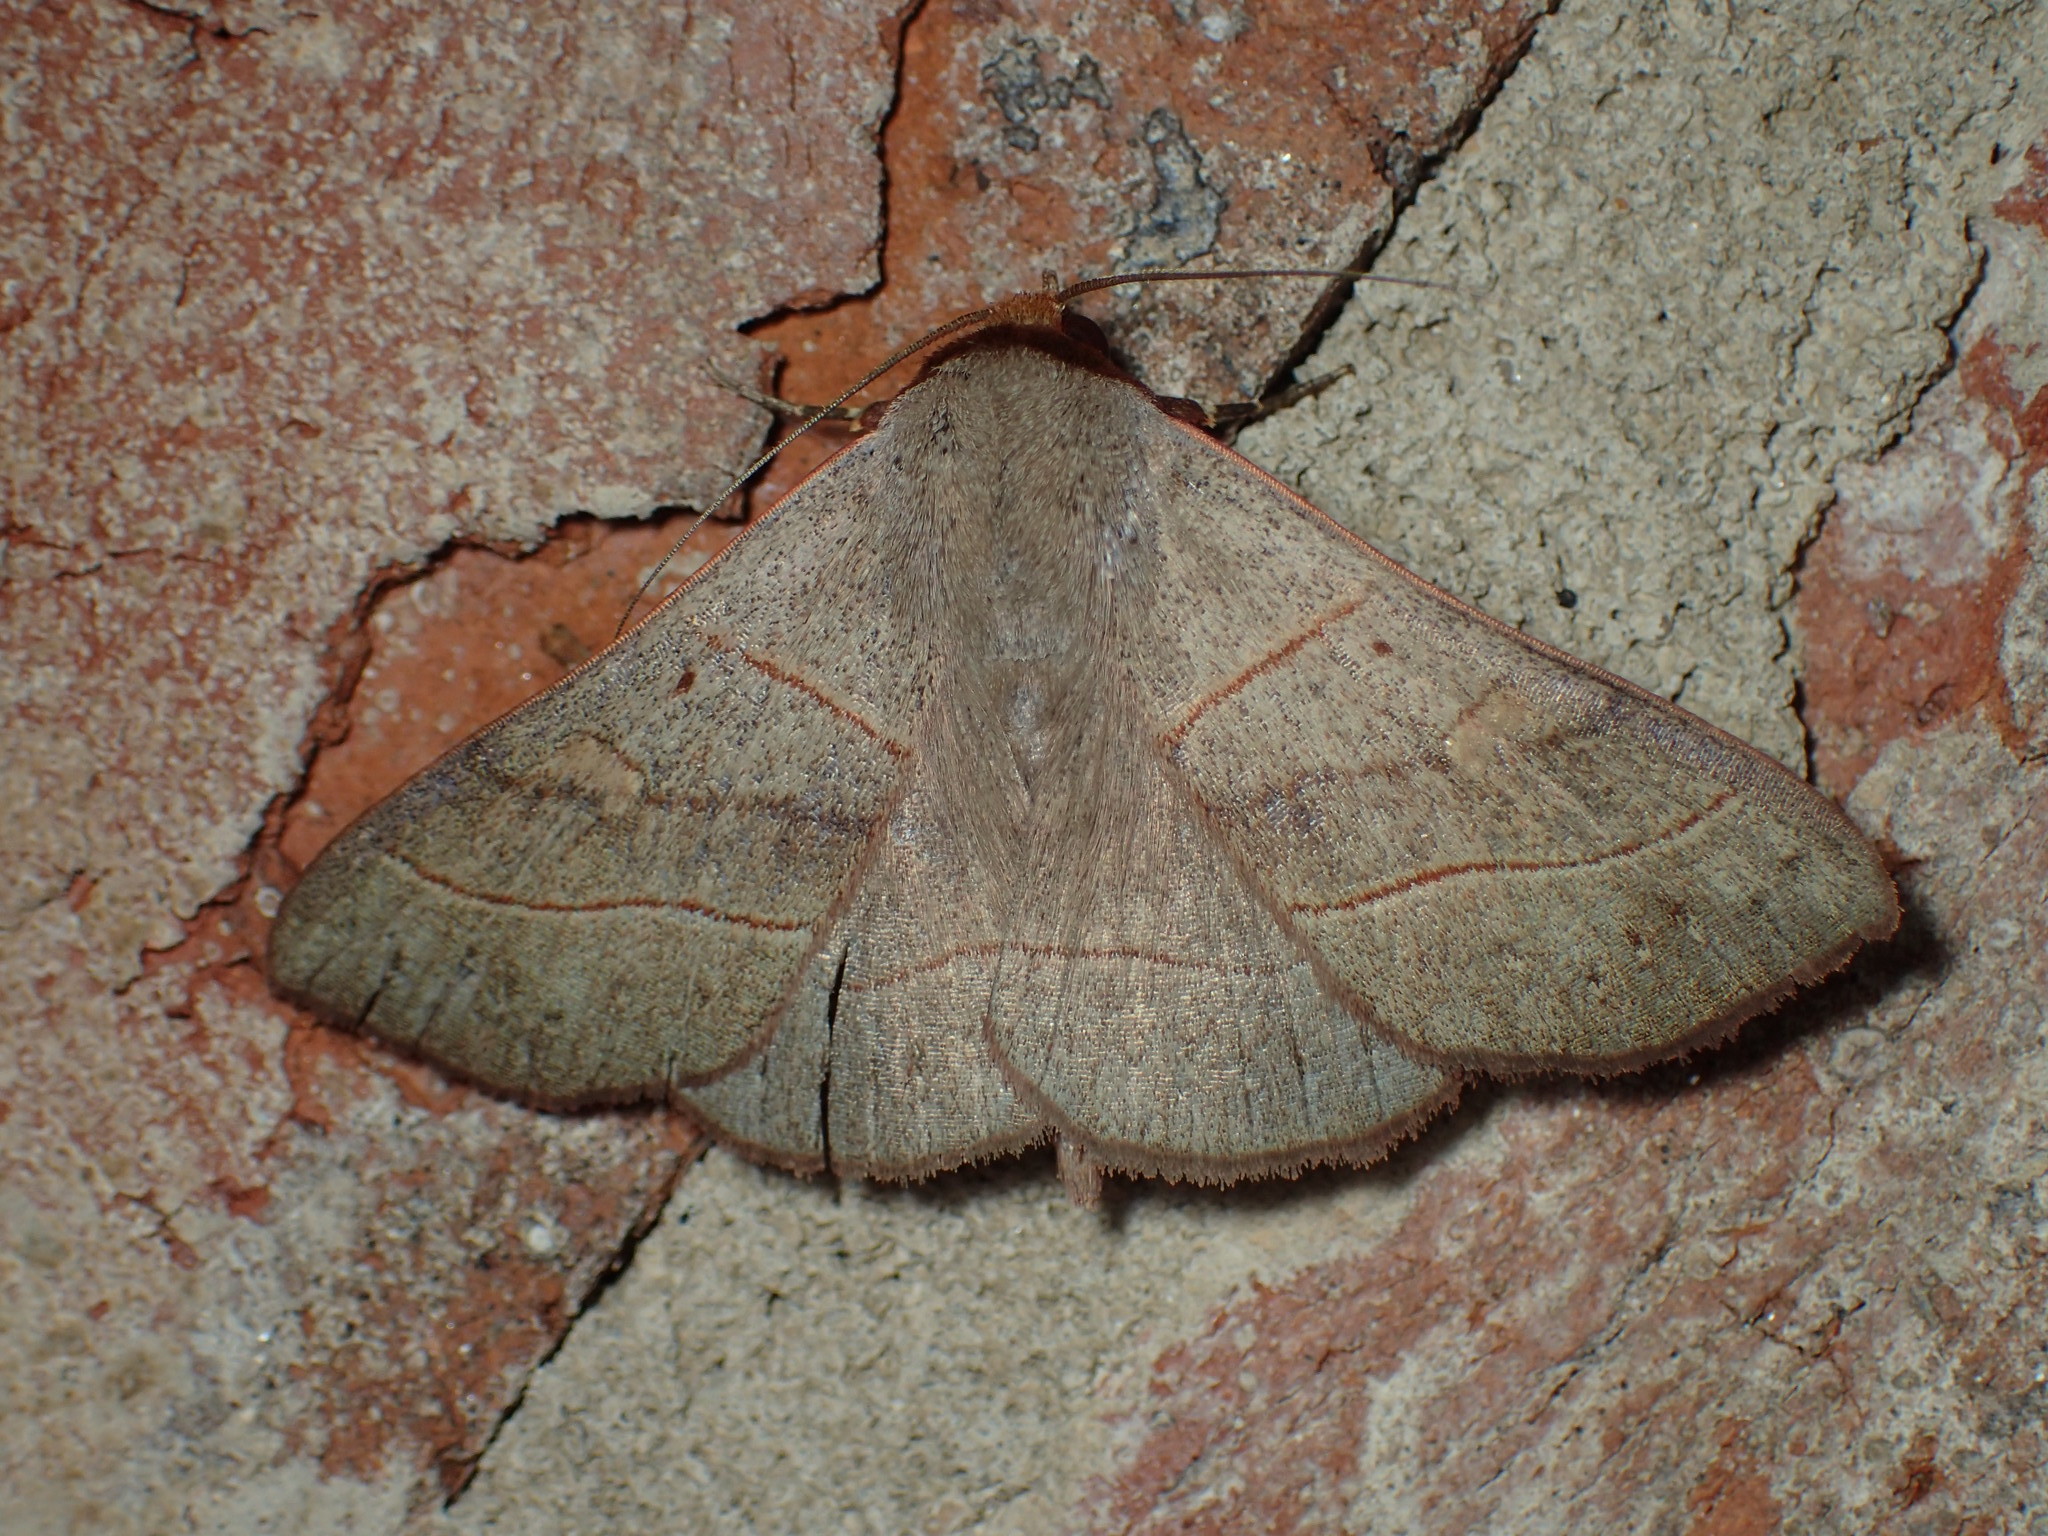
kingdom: Animalia
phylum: Arthropoda
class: Insecta
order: Lepidoptera
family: Erebidae
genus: Panopoda
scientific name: Panopoda rufimargo
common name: Red-lined panopoda moth
